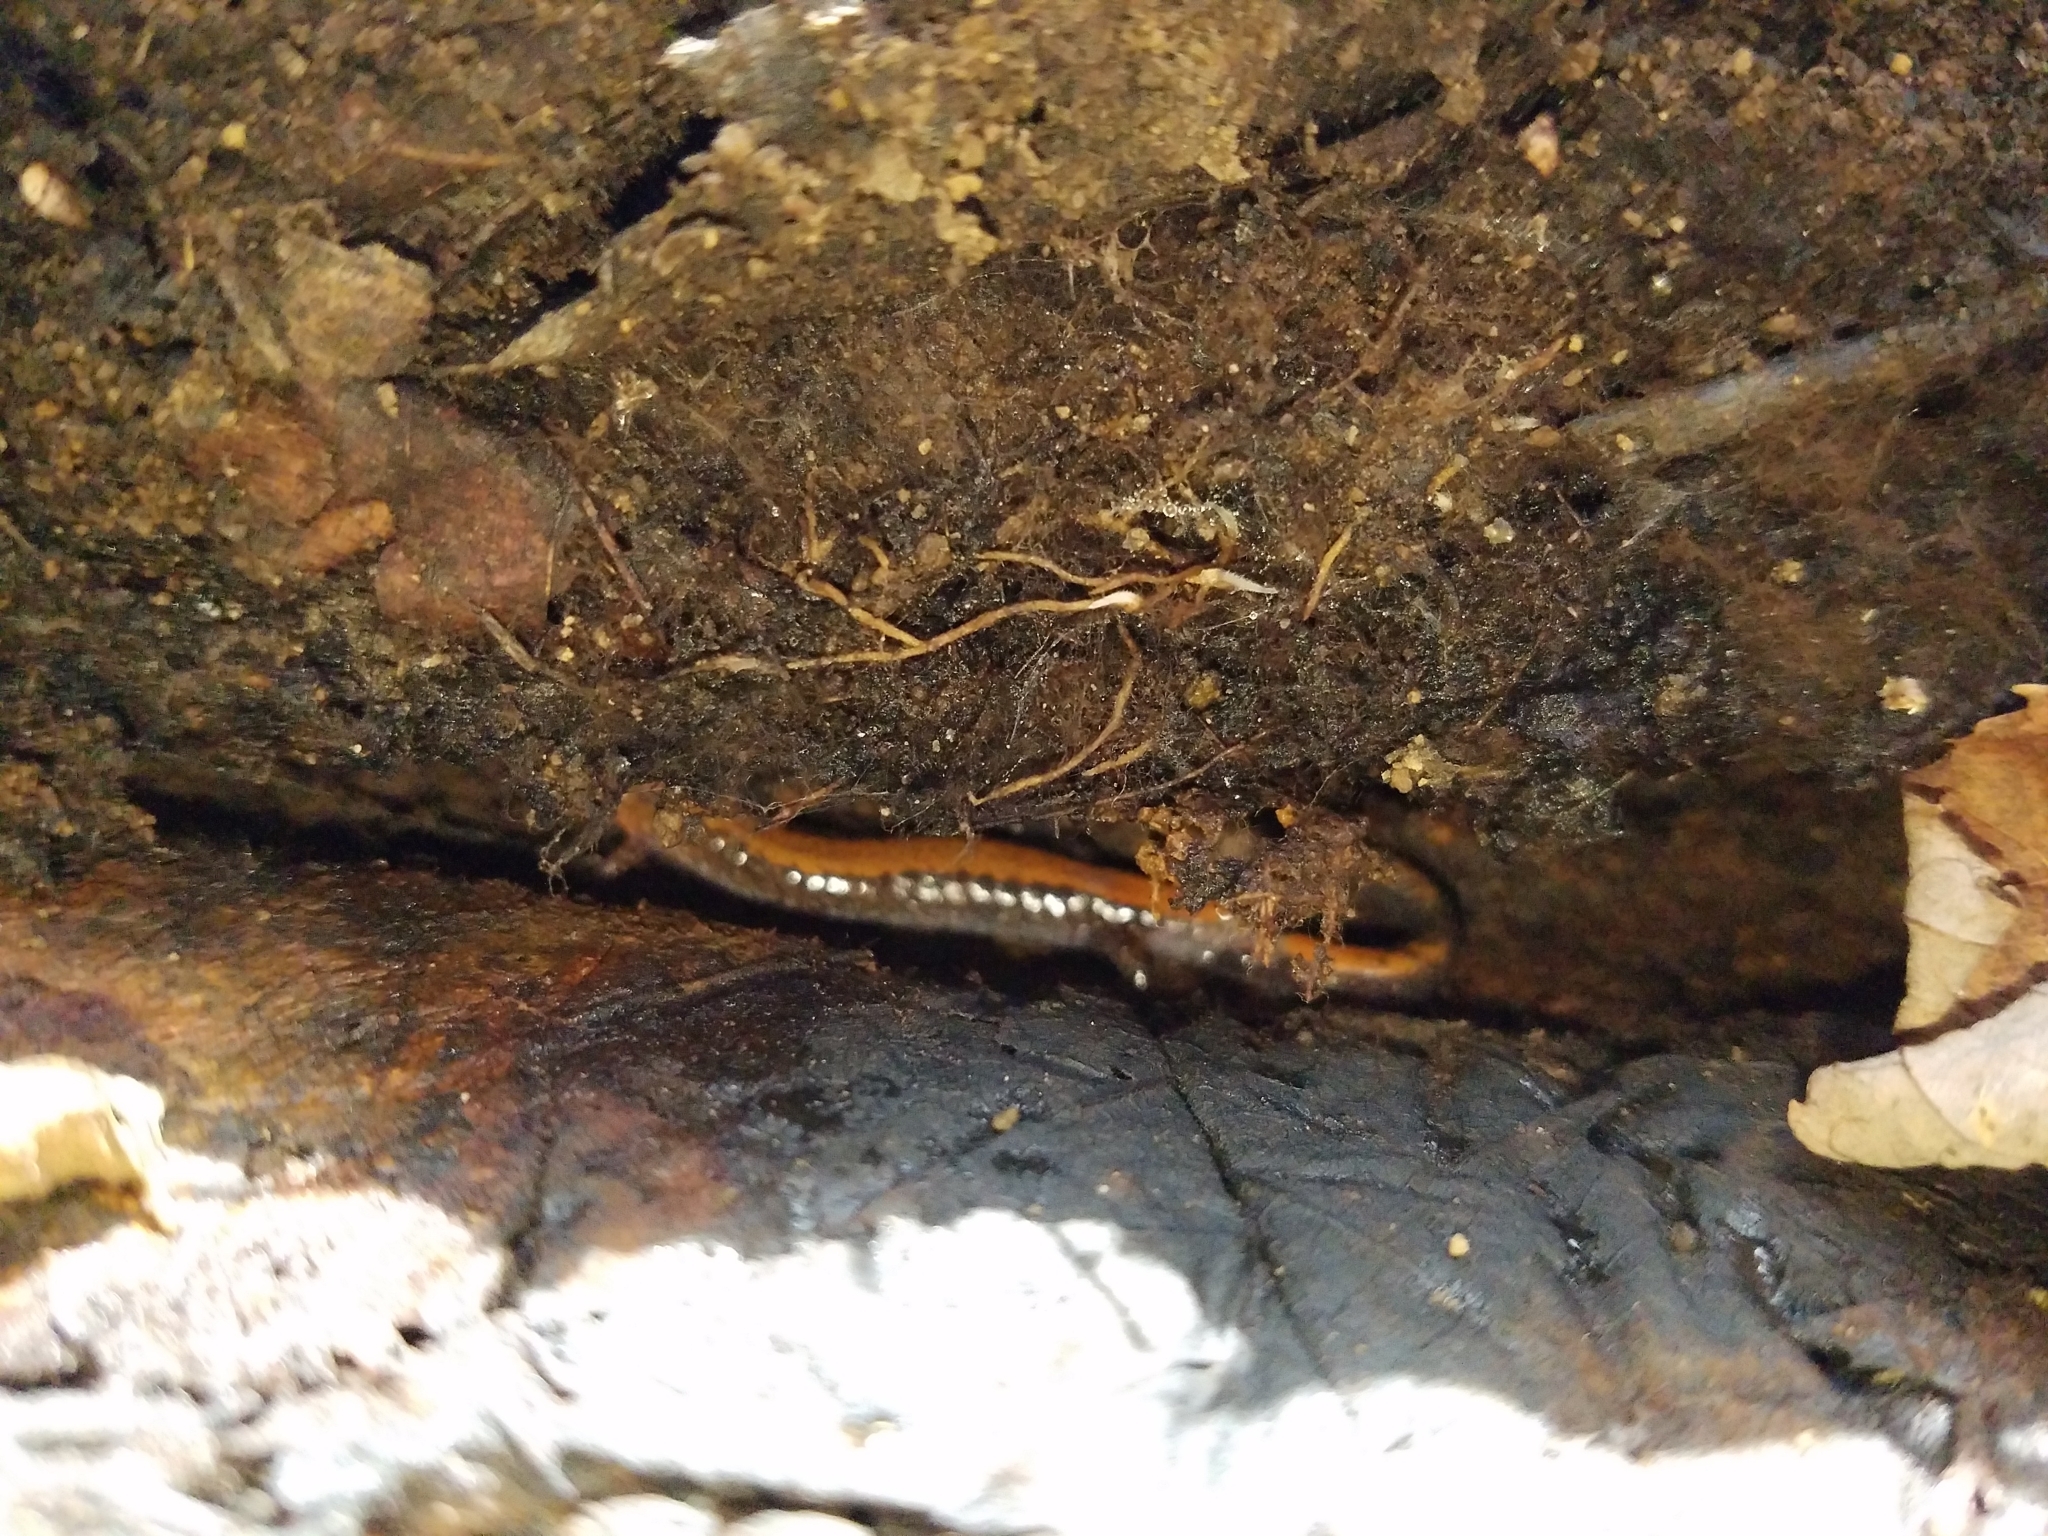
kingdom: Animalia
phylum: Chordata
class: Amphibia
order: Caudata
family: Plethodontidae
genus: Plethodon
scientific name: Plethodon cinereus
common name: Redback salamander
